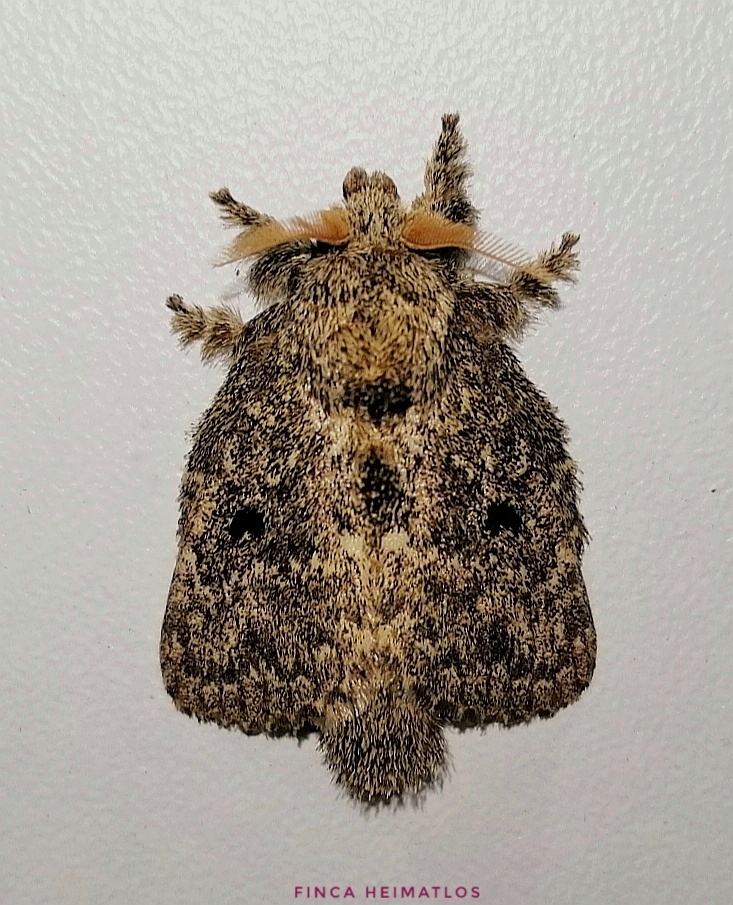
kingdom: Animalia
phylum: Arthropoda
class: Insecta
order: Lepidoptera
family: Lasiocampidae
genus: Euglyphis
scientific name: Euglyphis amathuria
